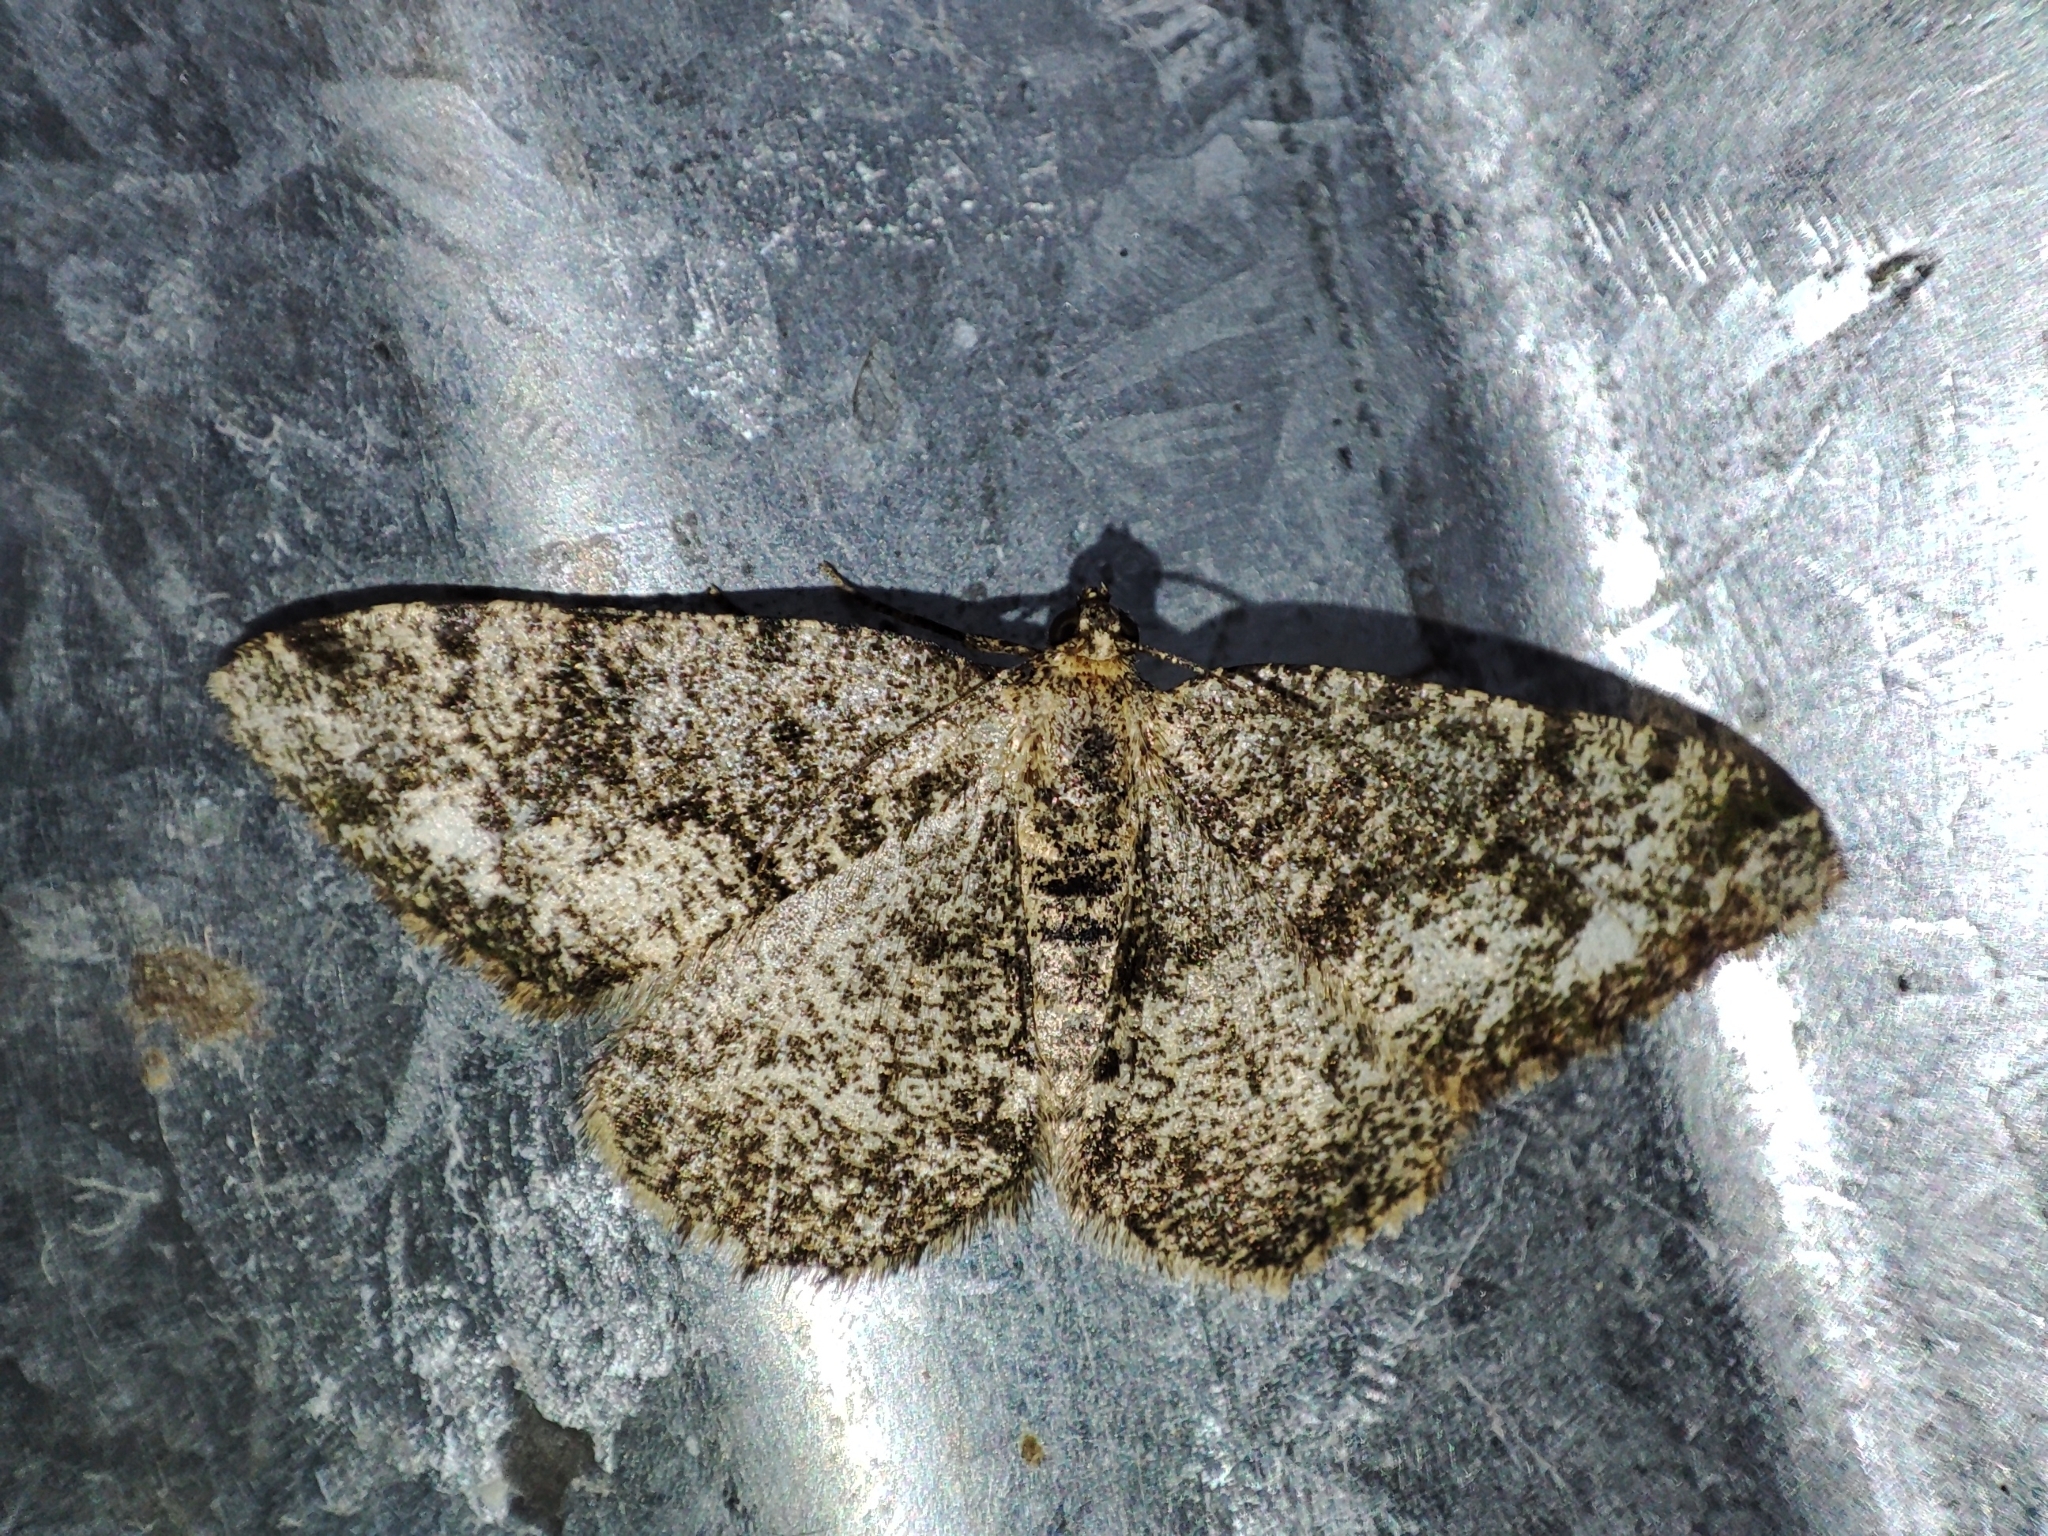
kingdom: Animalia
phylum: Arthropoda
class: Insecta
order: Lepidoptera
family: Geometridae
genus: Parectropis
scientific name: Parectropis similaria
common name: Brindled white-spot
